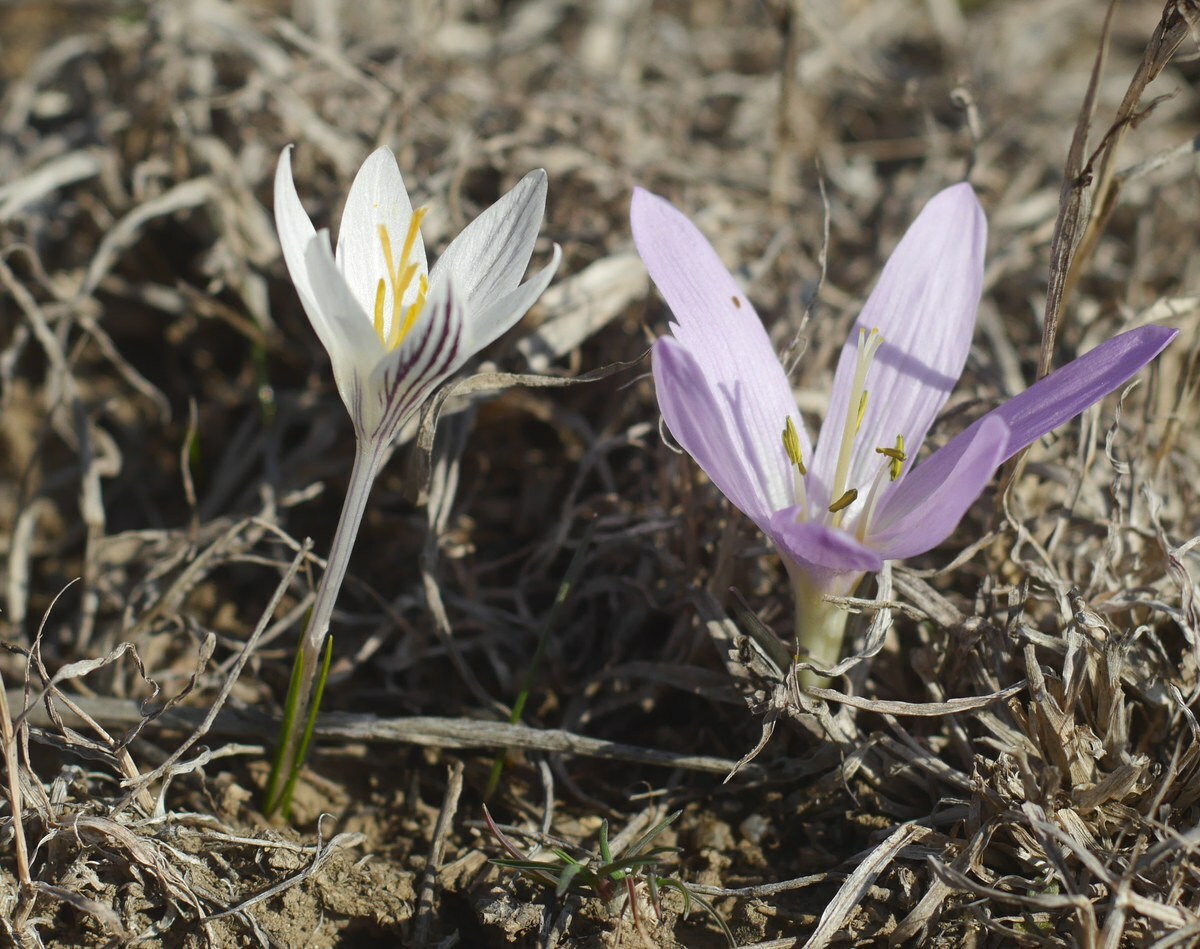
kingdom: Plantae
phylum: Tracheophyta
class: Liliopsida
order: Liliales
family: Colchicaceae
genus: Colchicum
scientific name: Colchicum bulbocodium
